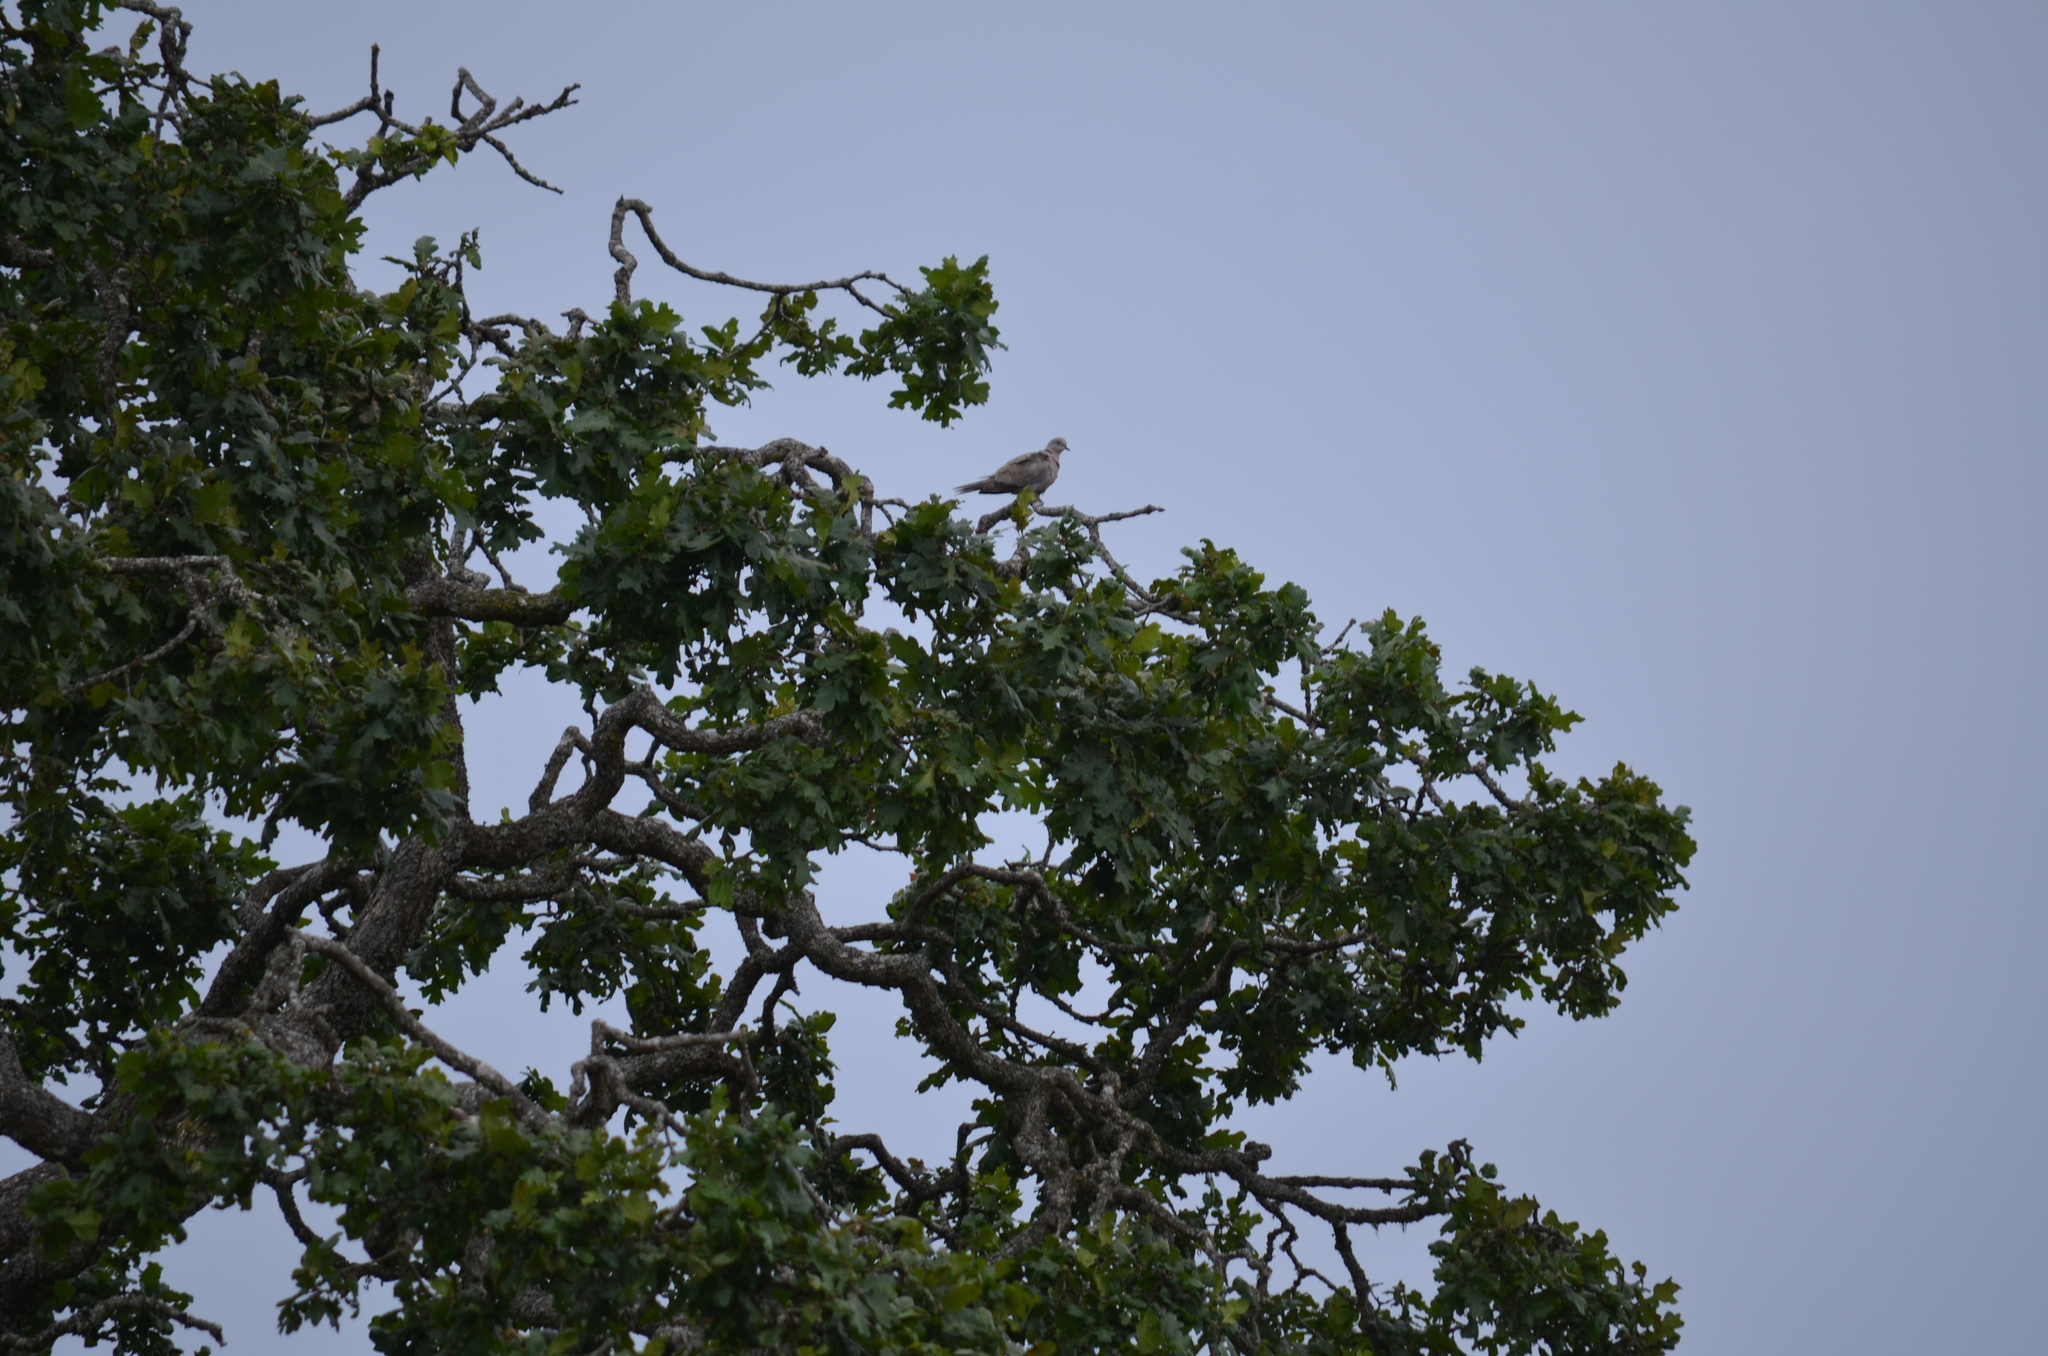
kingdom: Animalia
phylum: Chordata
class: Aves
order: Columbiformes
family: Columbidae
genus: Streptopelia
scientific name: Streptopelia decaocto
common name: Eurasian collared dove
